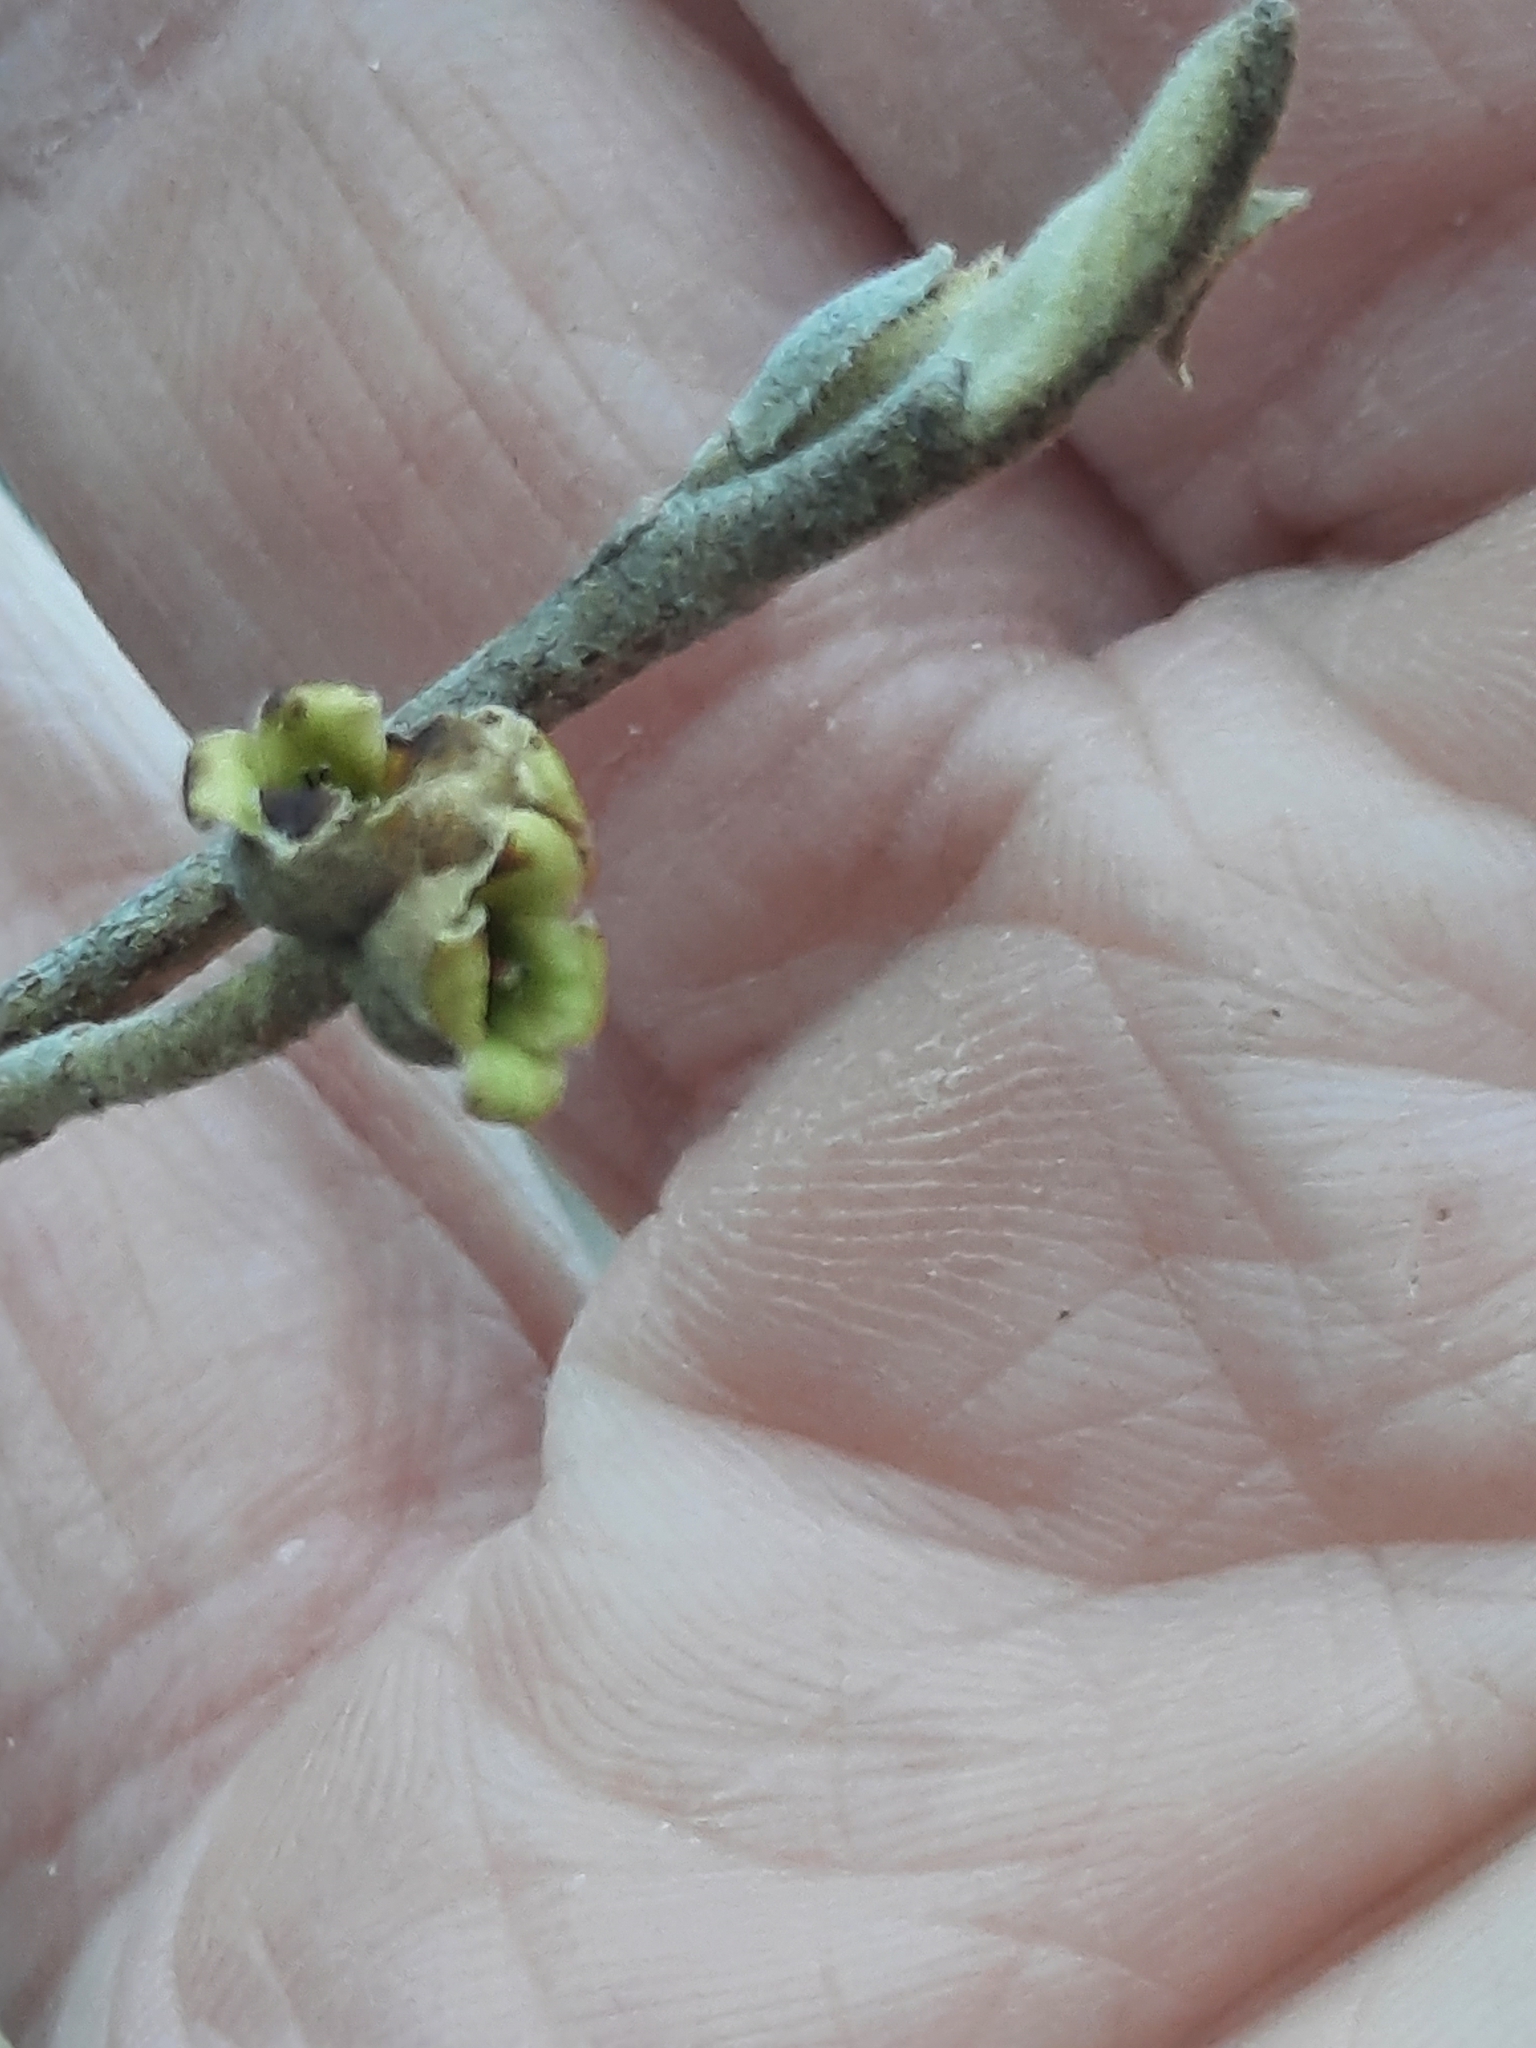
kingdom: Plantae
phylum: Tracheophyta
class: Magnoliopsida
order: Saxifragales
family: Hamamelidaceae
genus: Hamamelis
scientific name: Hamamelis virginiana
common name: Witch-hazel
